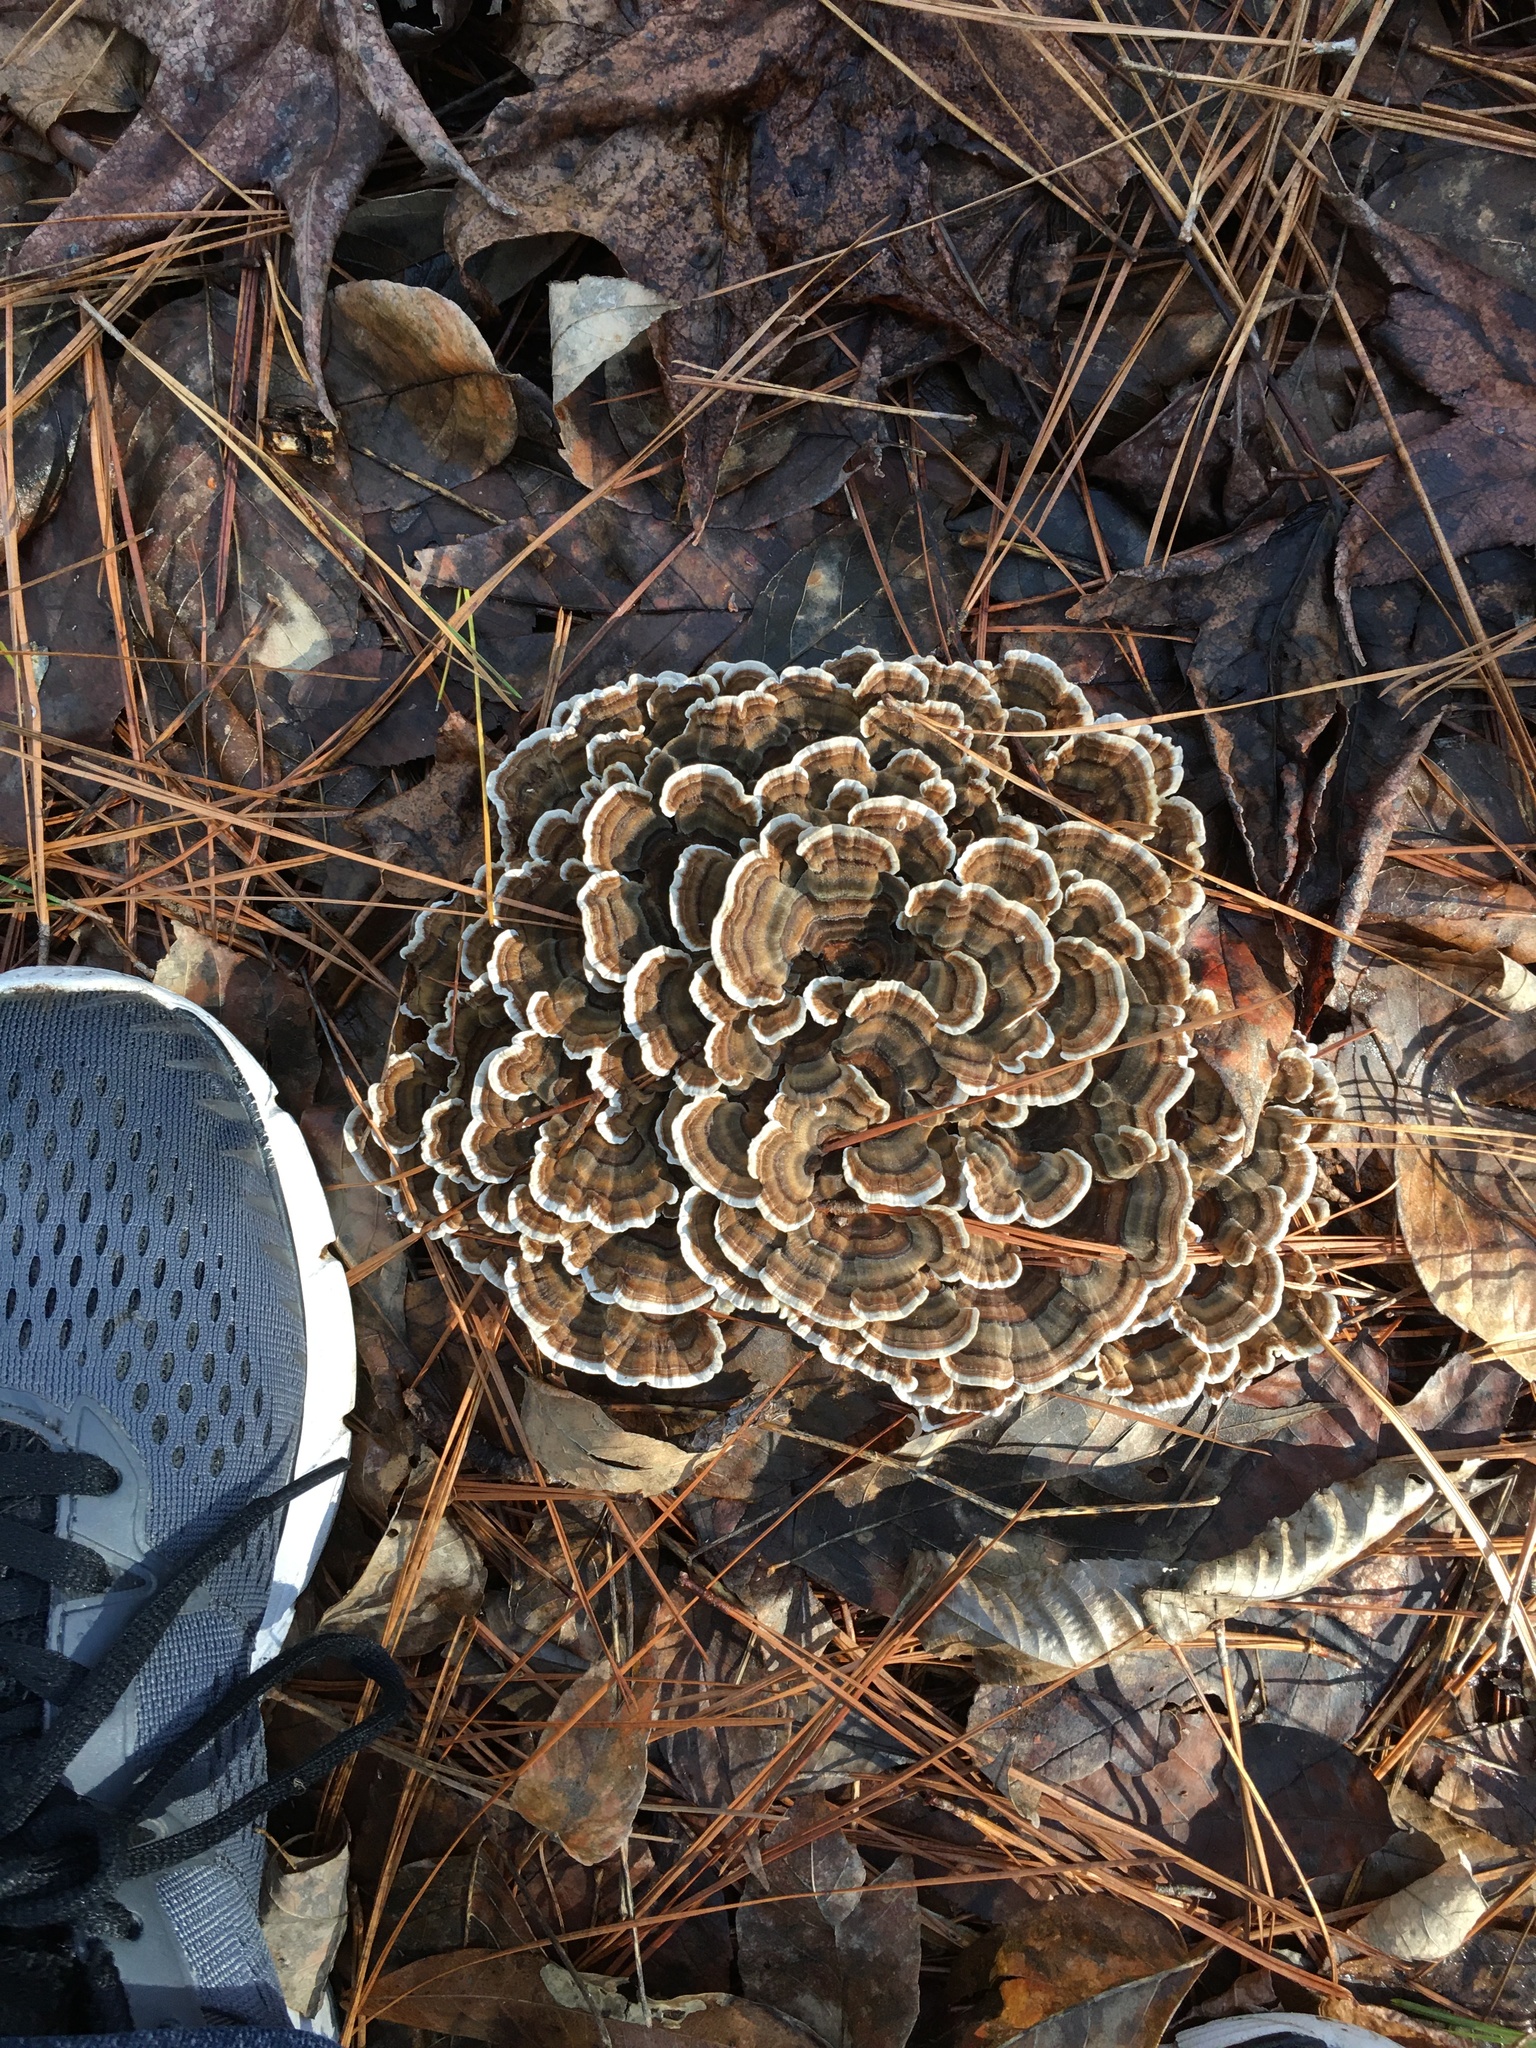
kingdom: Fungi
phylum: Basidiomycota
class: Agaricomycetes
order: Polyporales
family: Polyporaceae
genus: Trametes
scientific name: Trametes versicolor
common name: Turkeytail
